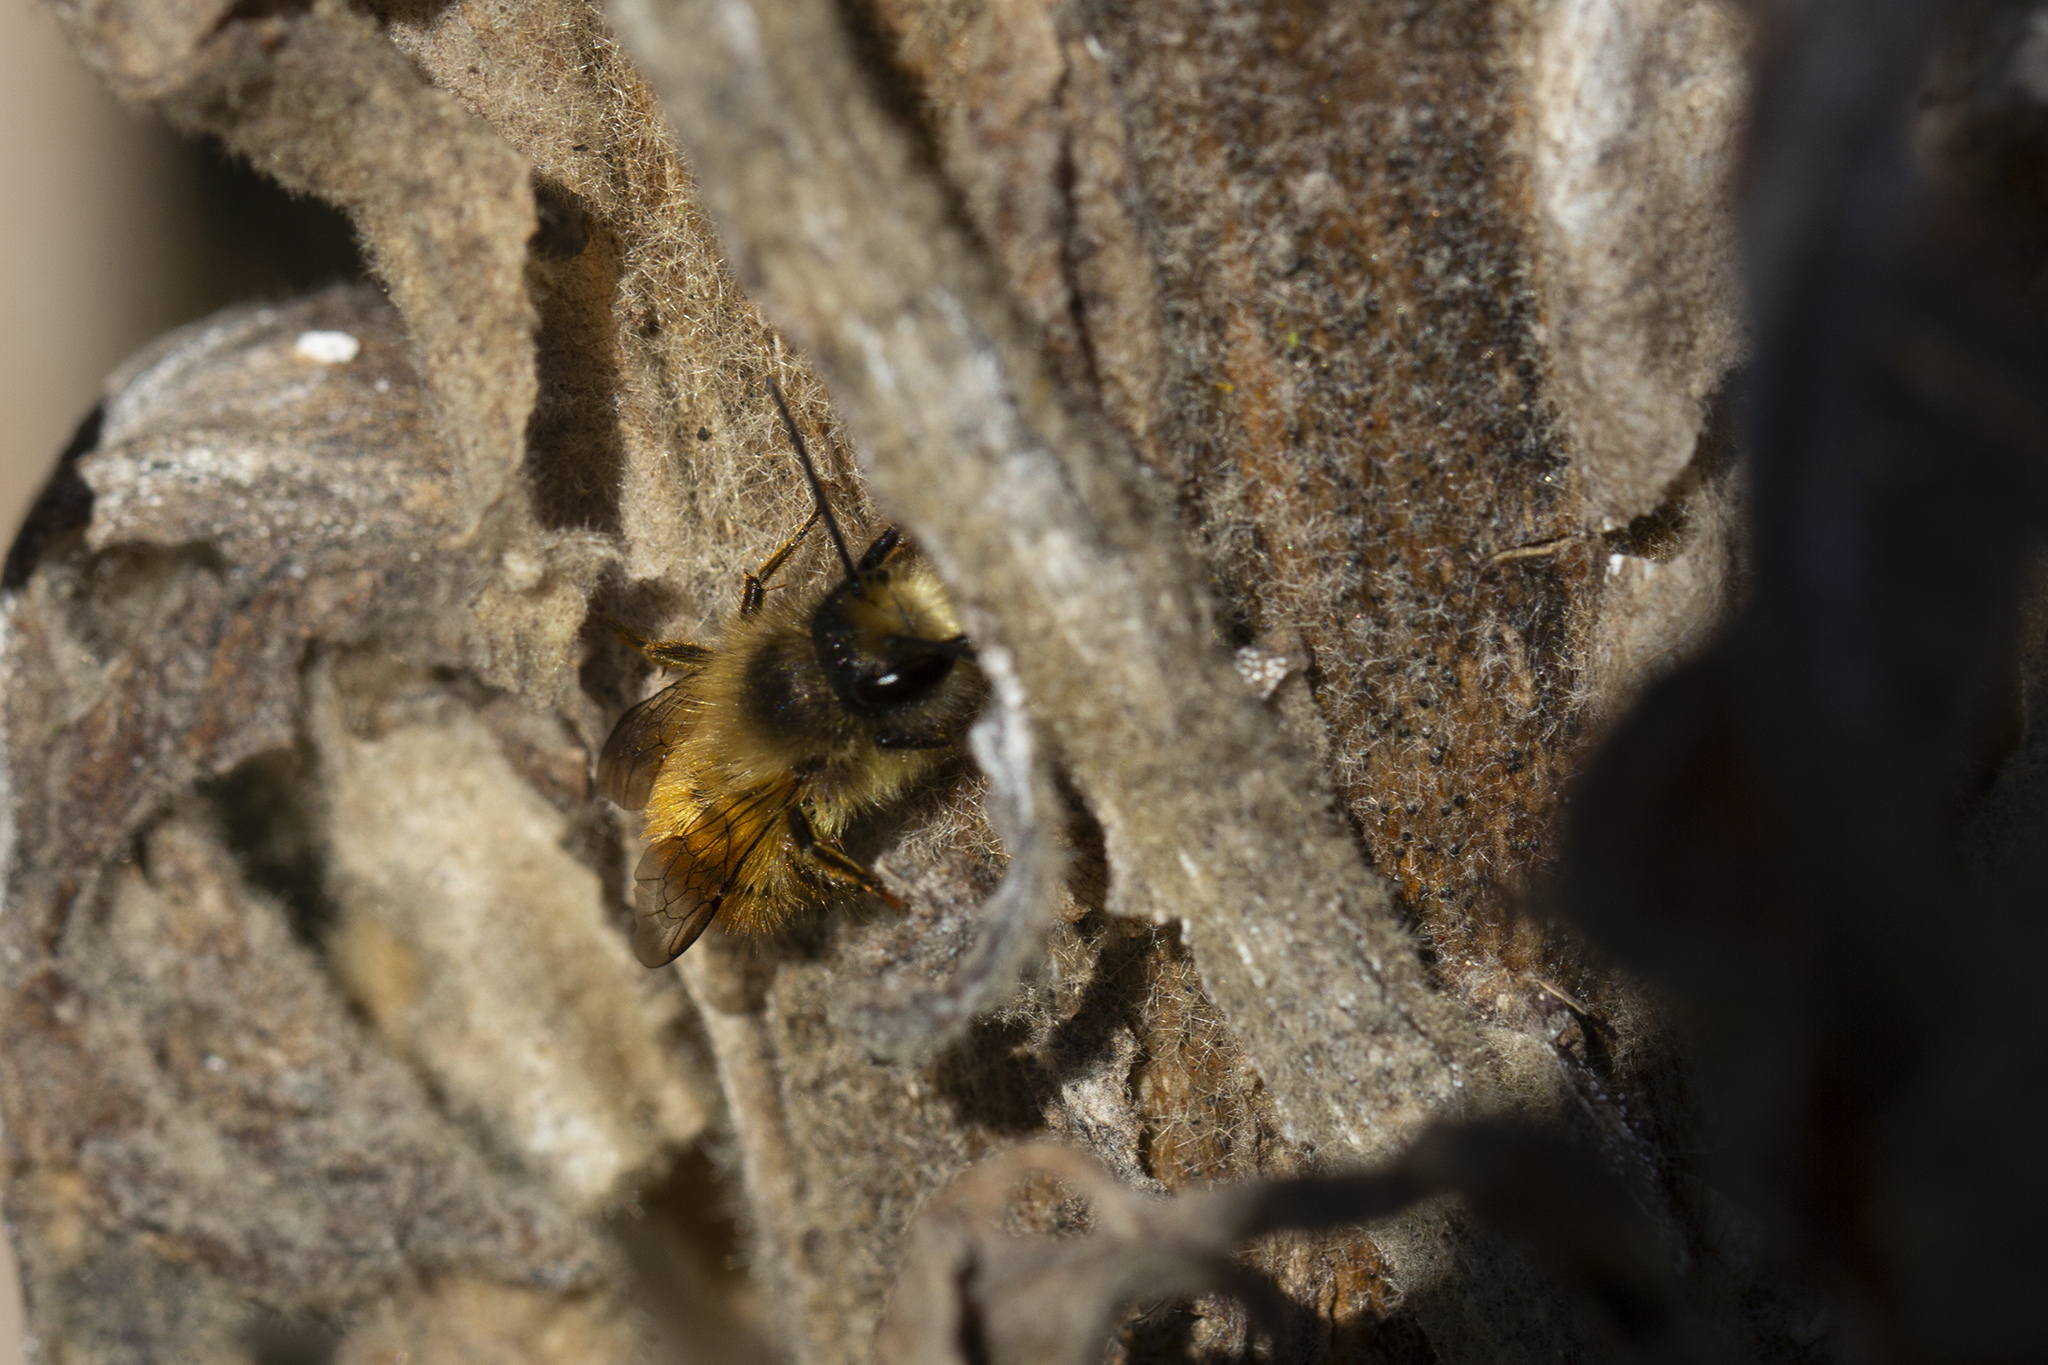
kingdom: Animalia
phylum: Arthropoda
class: Insecta
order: Hymenoptera
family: Megachilidae
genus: Osmia
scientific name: Osmia bicornis
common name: Red mason bee
